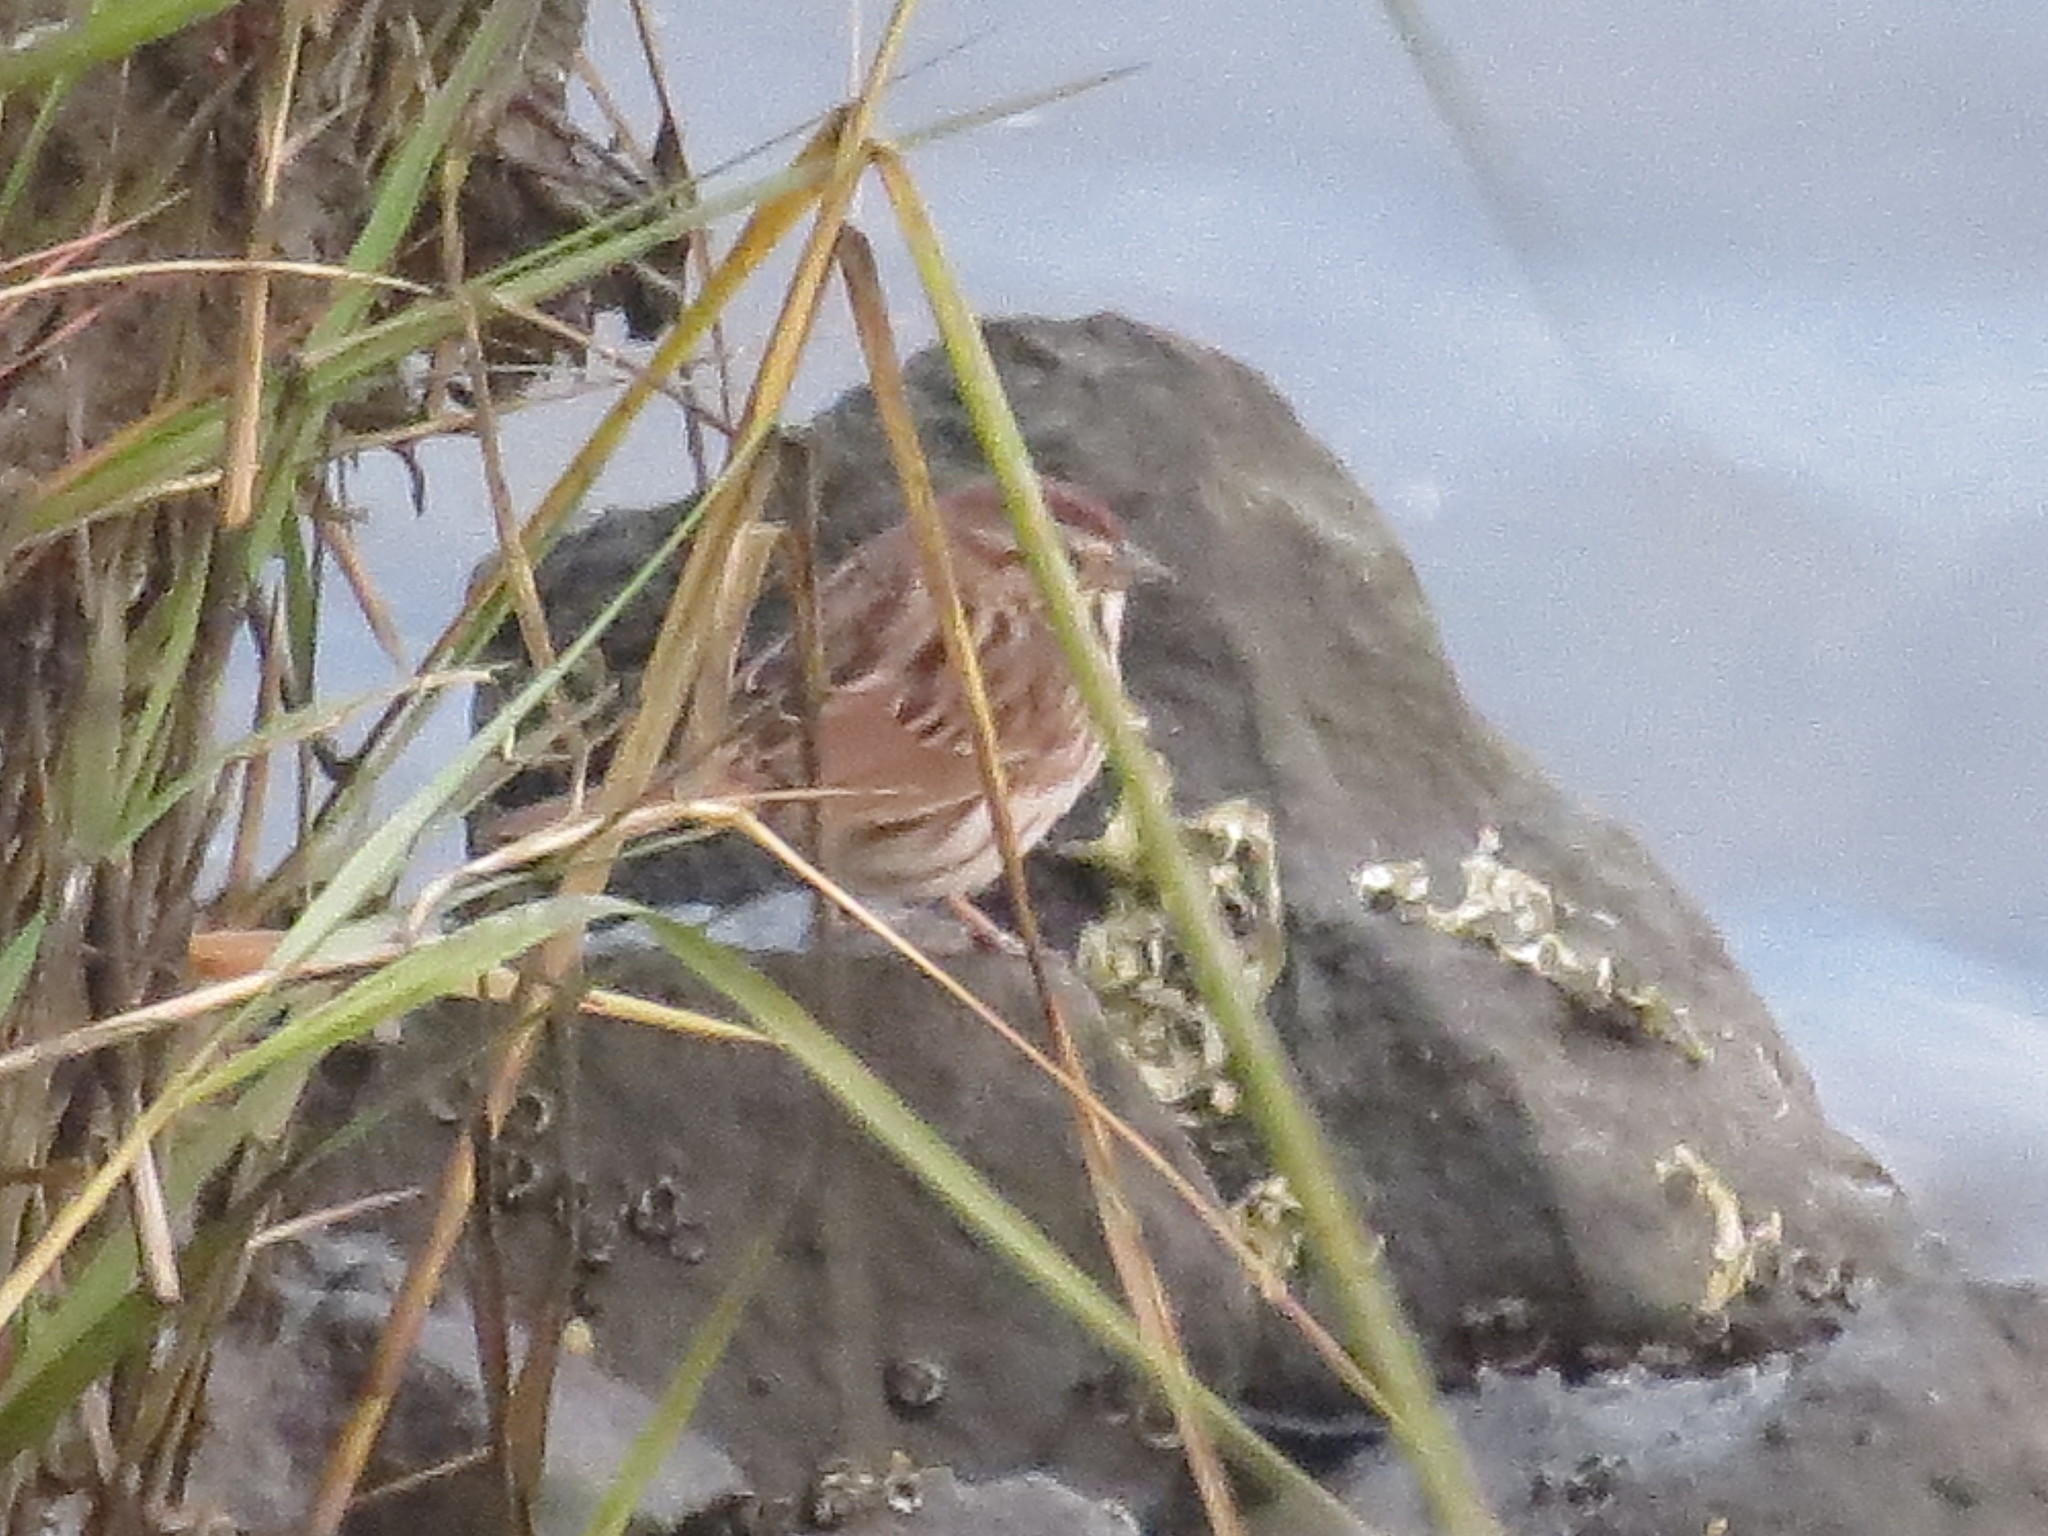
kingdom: Animalia
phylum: Chordata
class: Aves
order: Passeriformes
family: Passerellidae
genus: Melospiza
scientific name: Melospiza melodia
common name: Song sparrow
